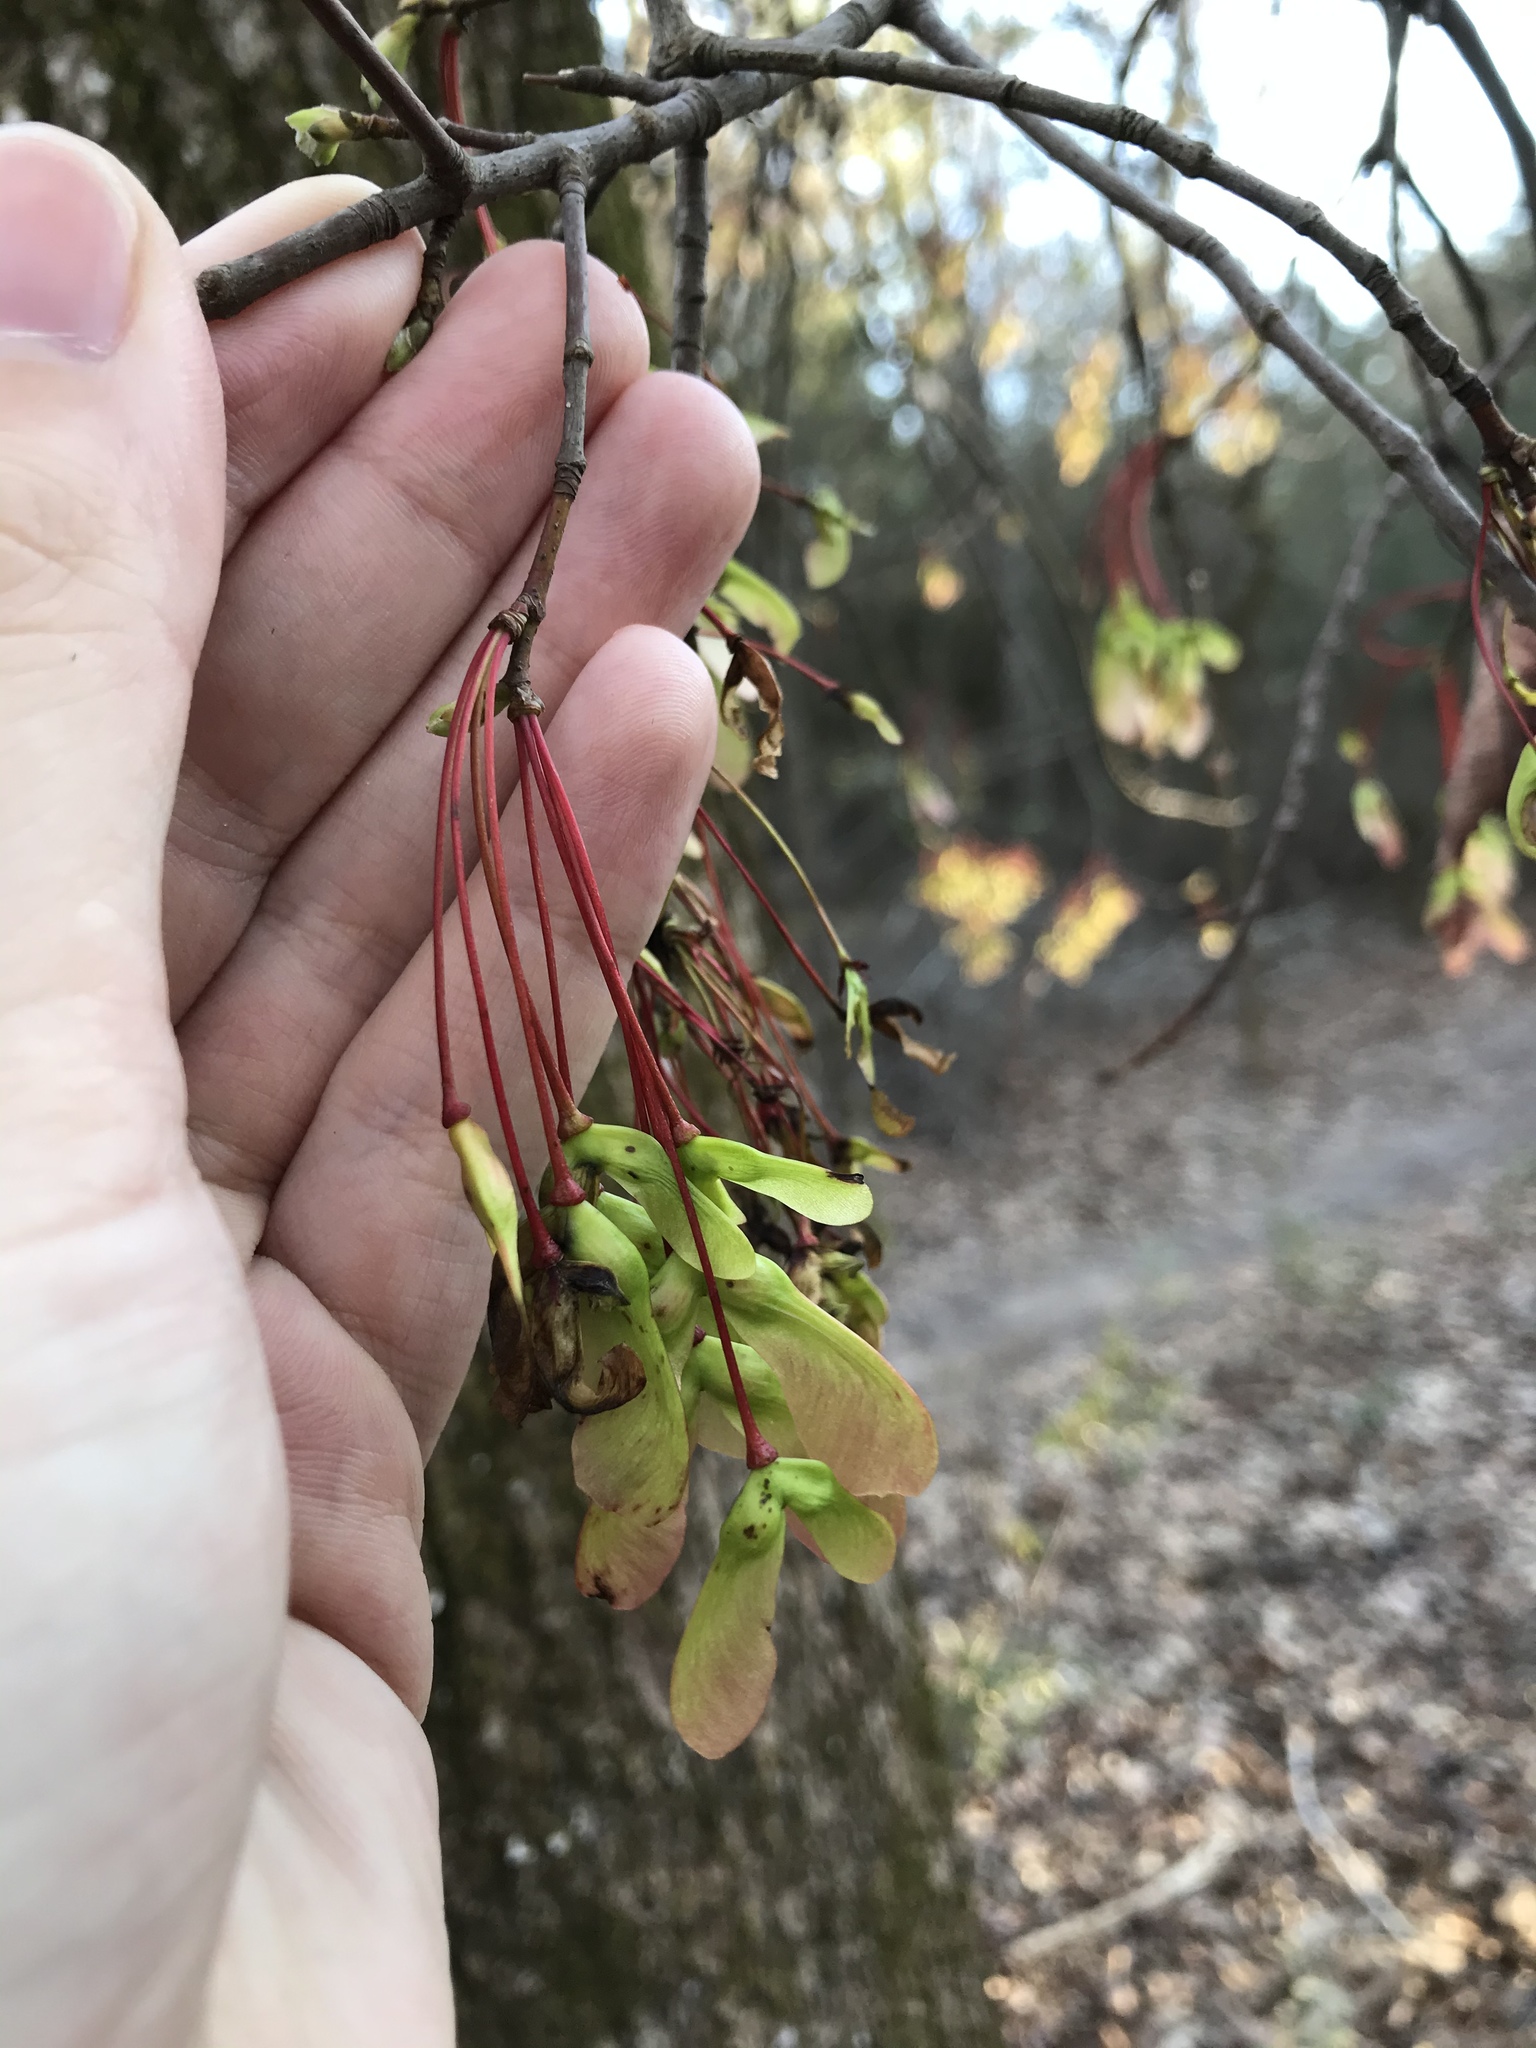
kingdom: Plantae
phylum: Tracheophyta
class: Magnoliopsida
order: Sapindales
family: Sapindaceae
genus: Acer
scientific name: Acer rubrum
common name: Red maple
